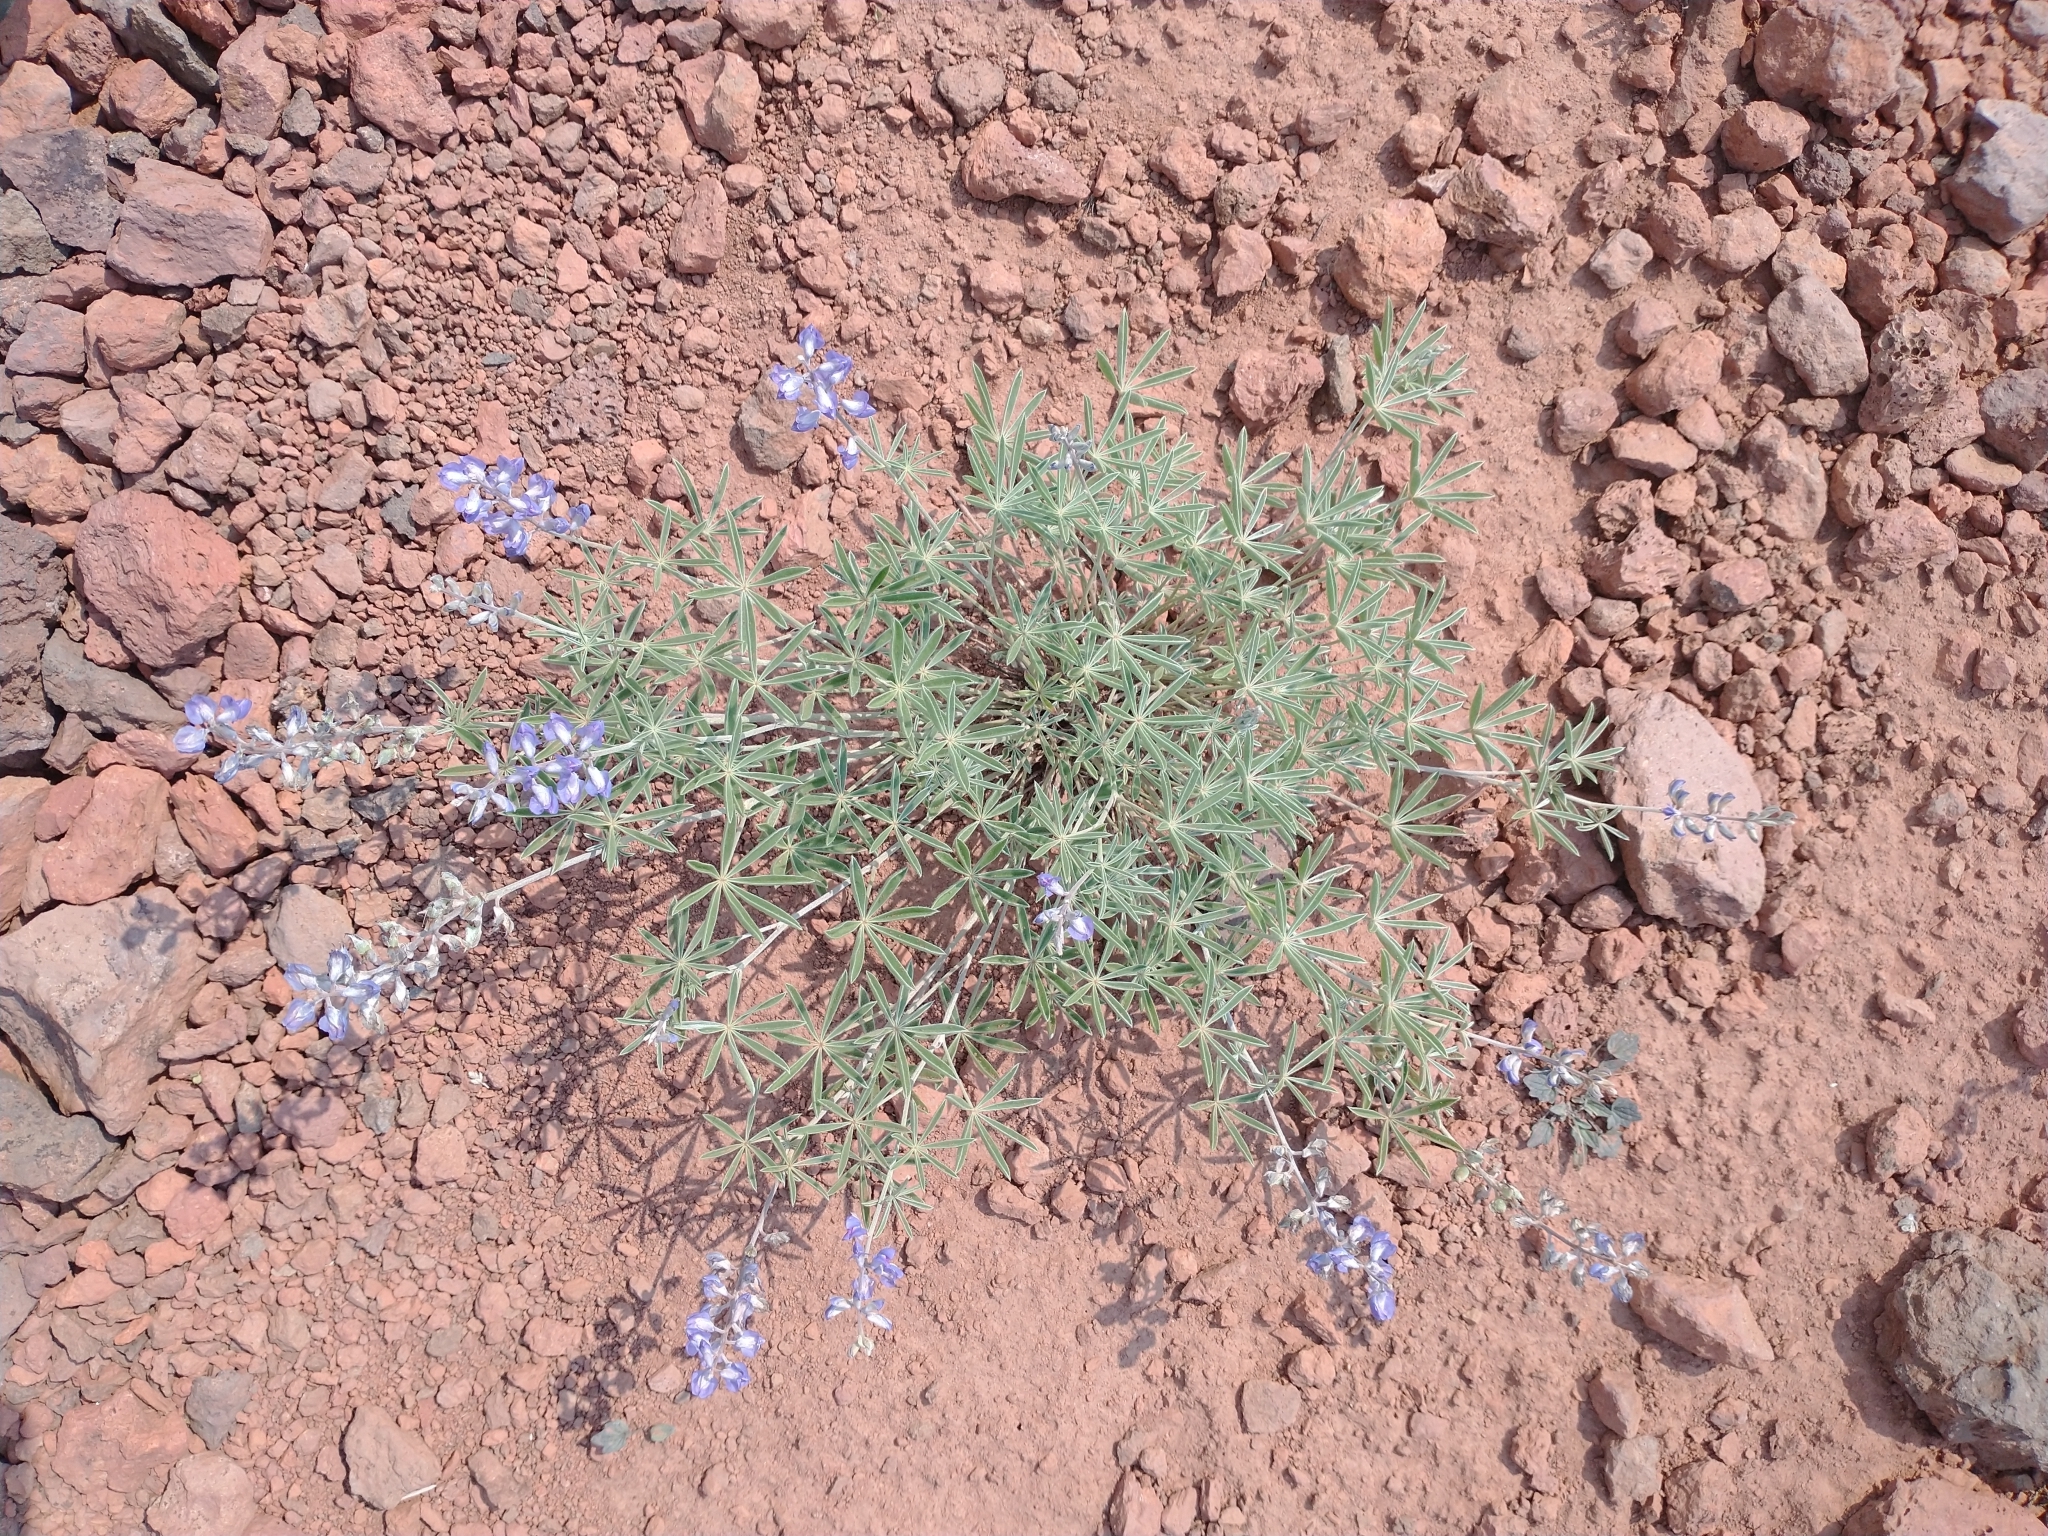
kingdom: Plantae
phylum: Tracheophyta
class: Magnoliopsida
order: Fabales
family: Fabaceae
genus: Lupinus
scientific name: Lupinus argenteus
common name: Silvery lupine
